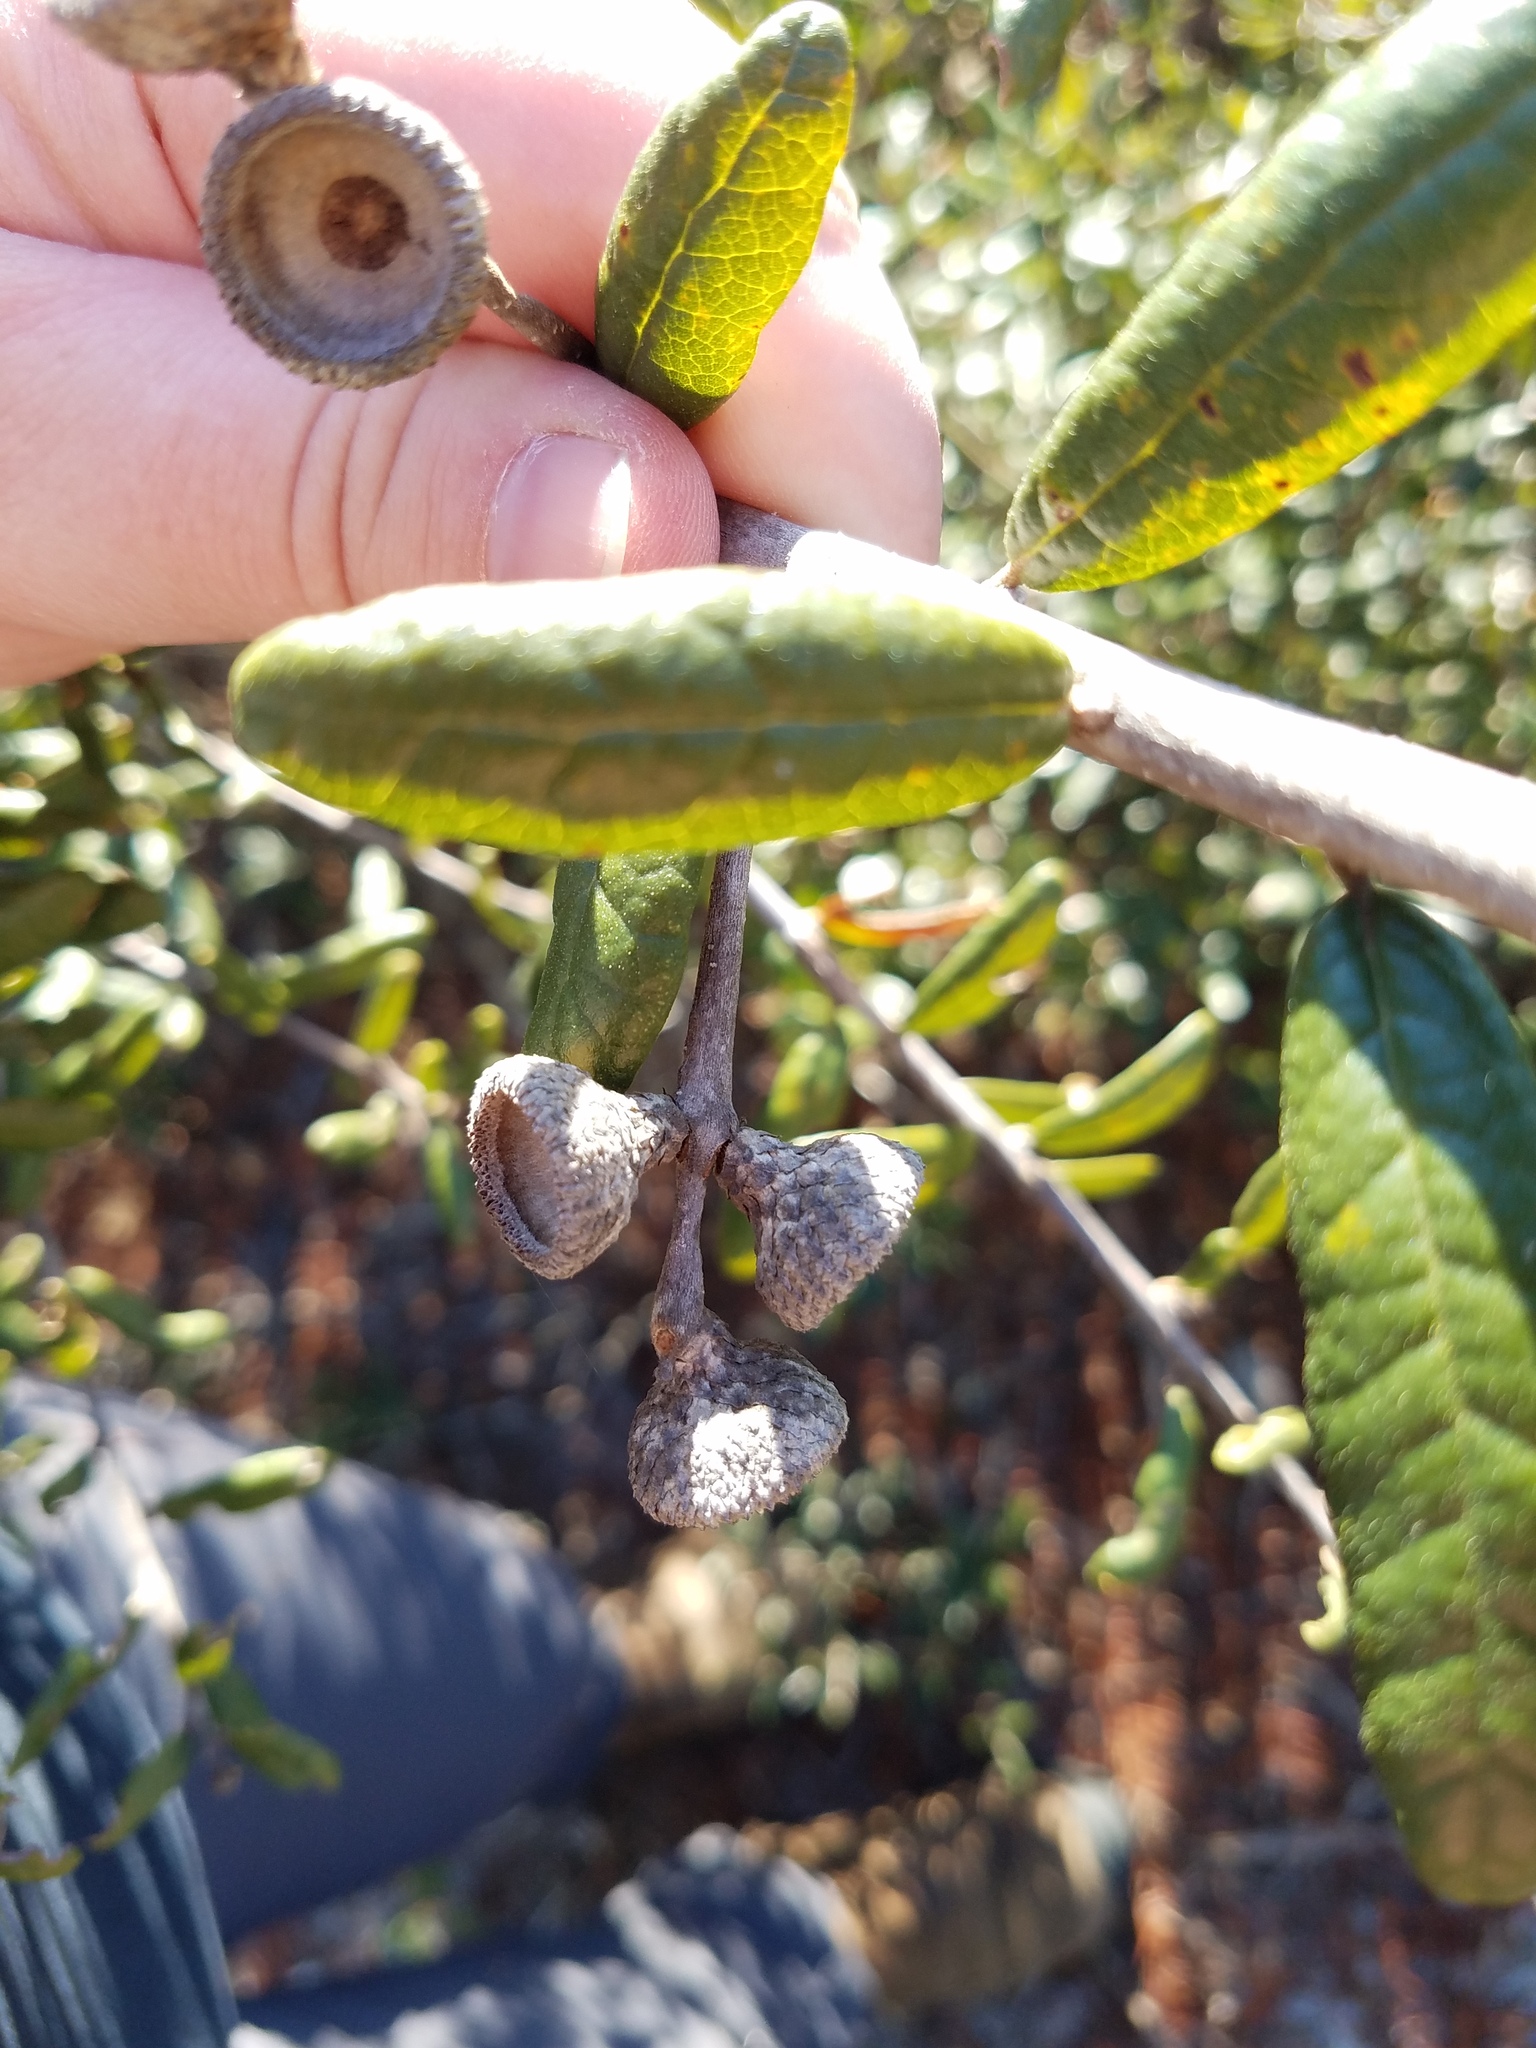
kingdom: Plantae
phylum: Tracheophyta
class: Magnoliopsida
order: Fagales
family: Fagaceae
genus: Quercus
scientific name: Quercus geminata
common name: Sand live oak
